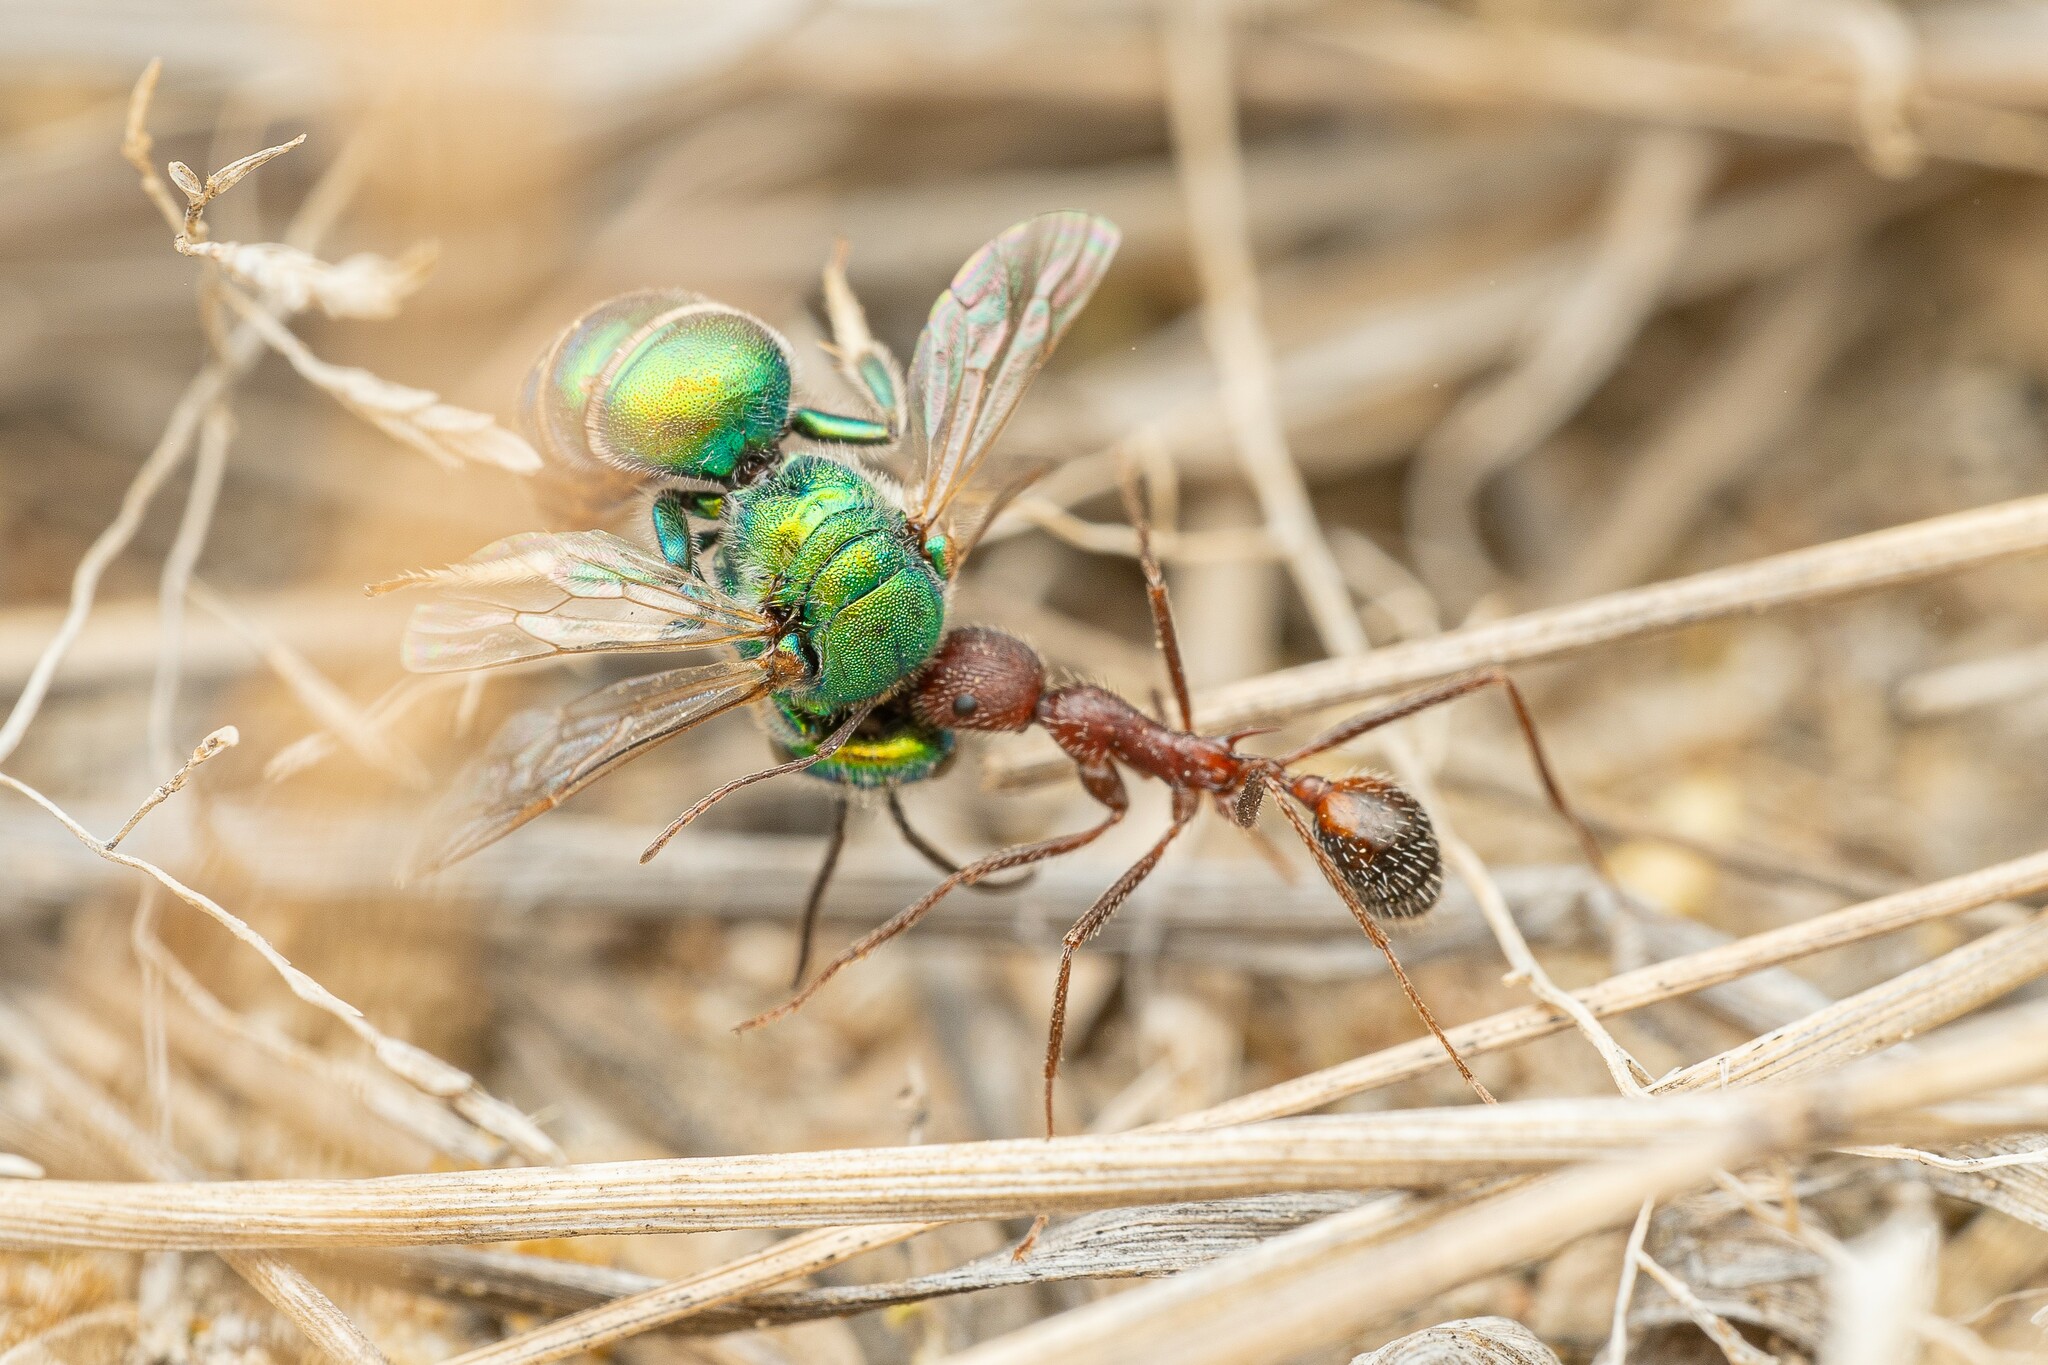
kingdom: Animalia
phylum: Arthropoda
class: Insecta
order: Hymenoptera
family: Formicidae
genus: Novomessor
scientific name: Novomessor albisetosa
